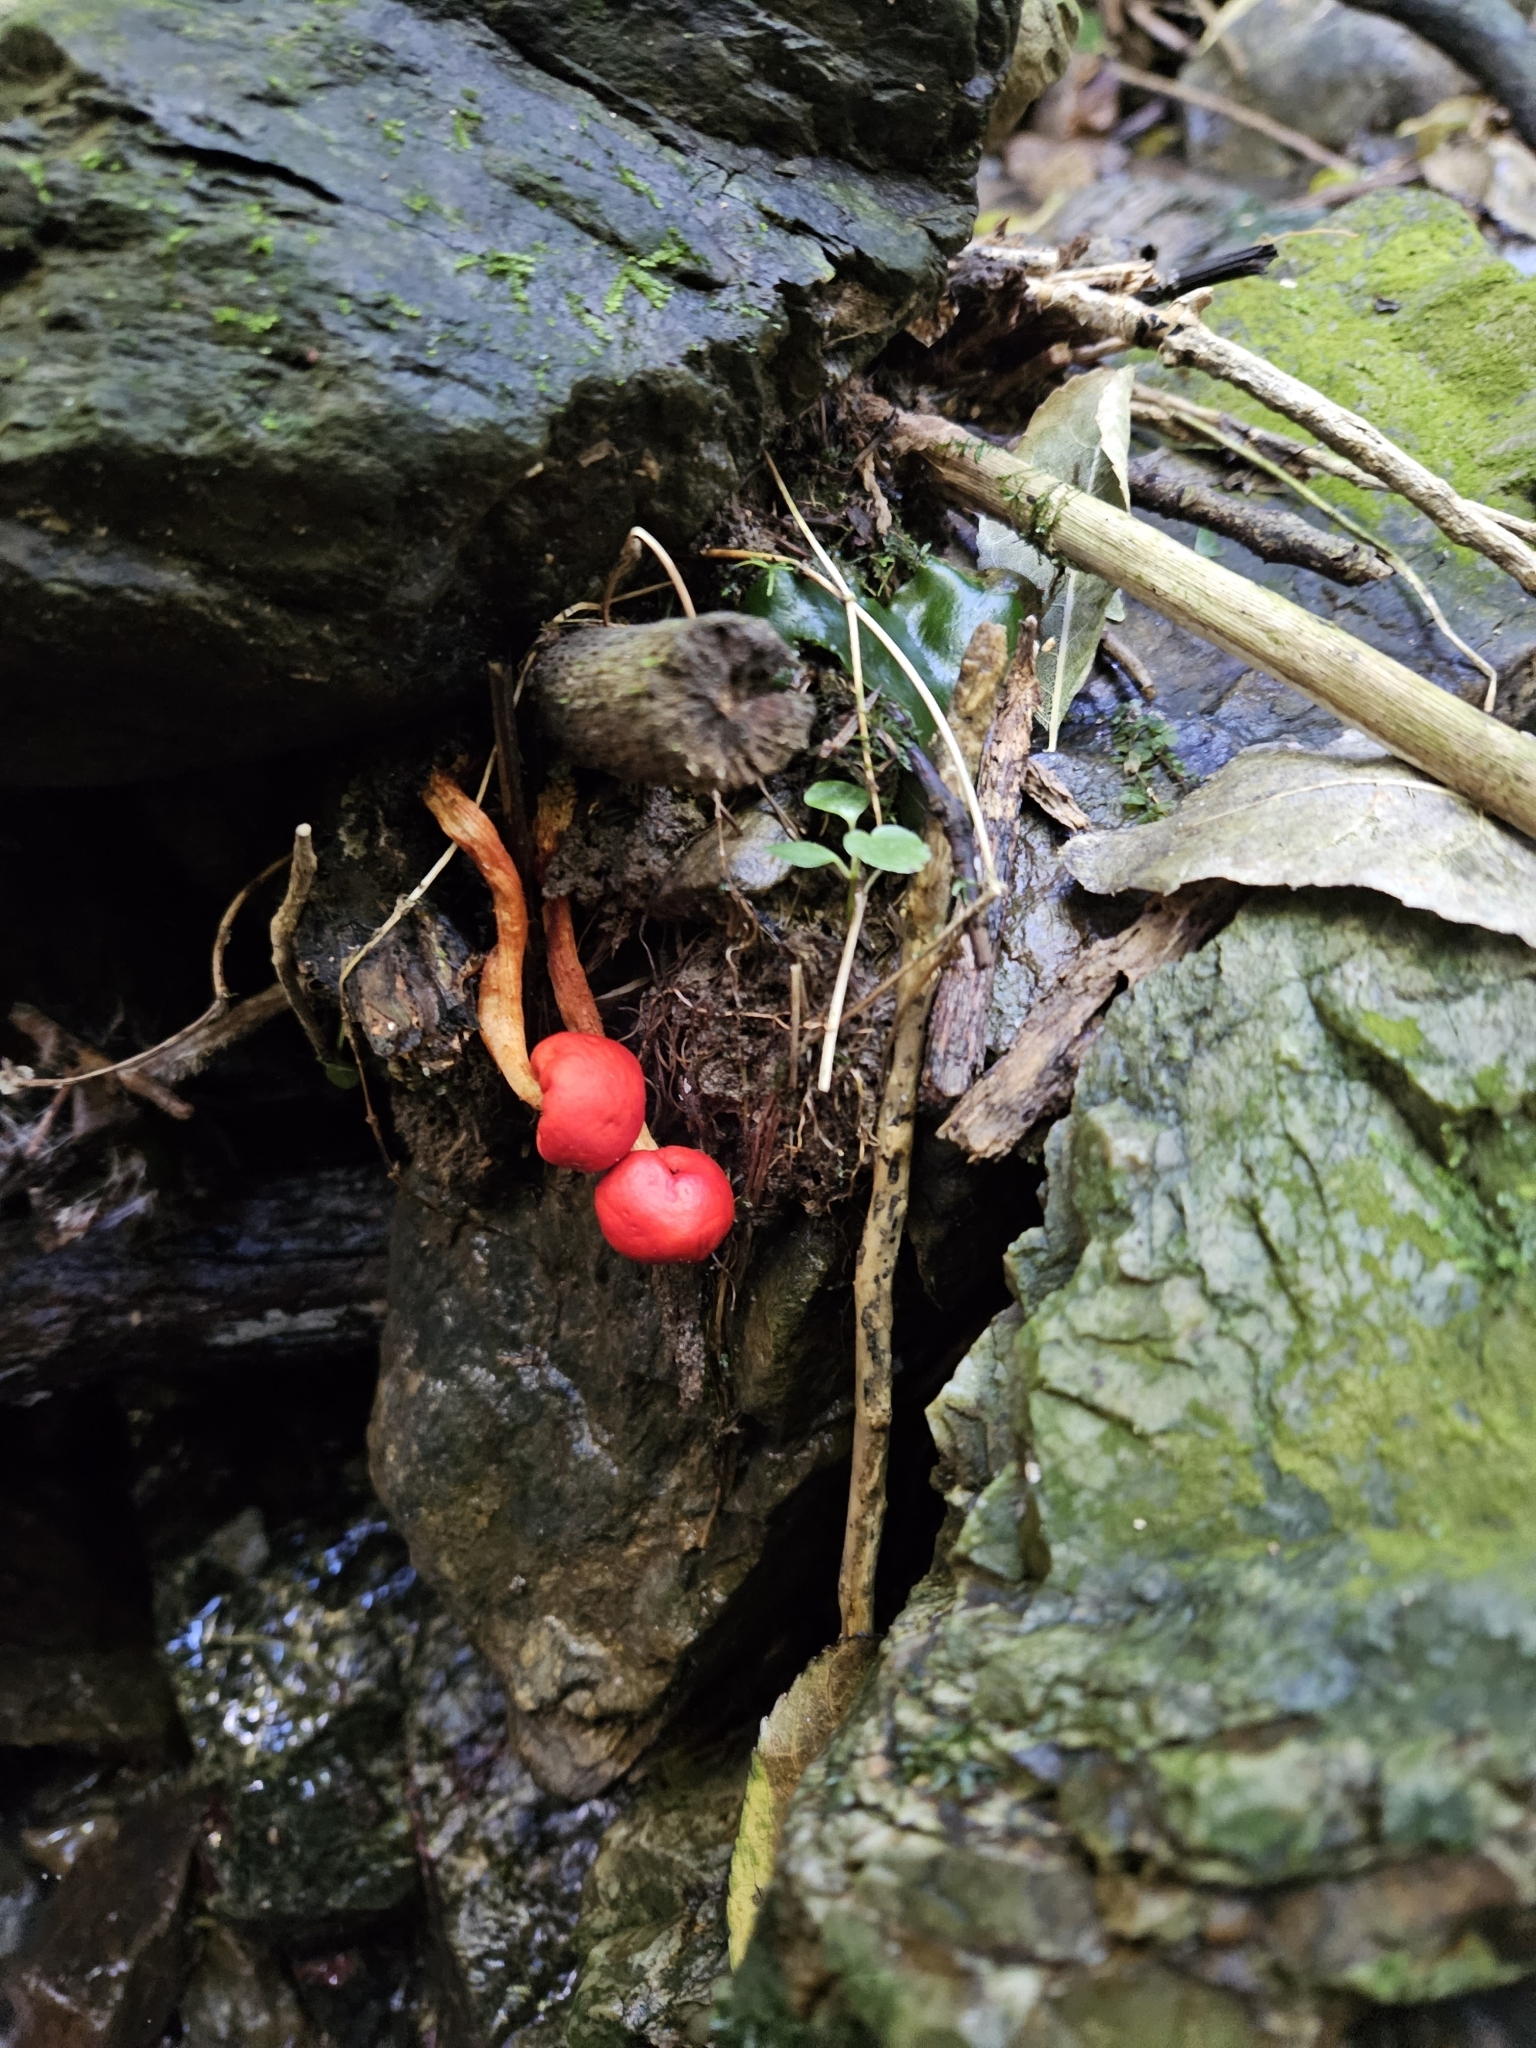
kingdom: Fungi
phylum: Basidiomycota
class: Agaricomycetes
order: Agaricales
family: Strophariaceae
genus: Leratiomyces
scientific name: Leratiomyces erythrocephalus
